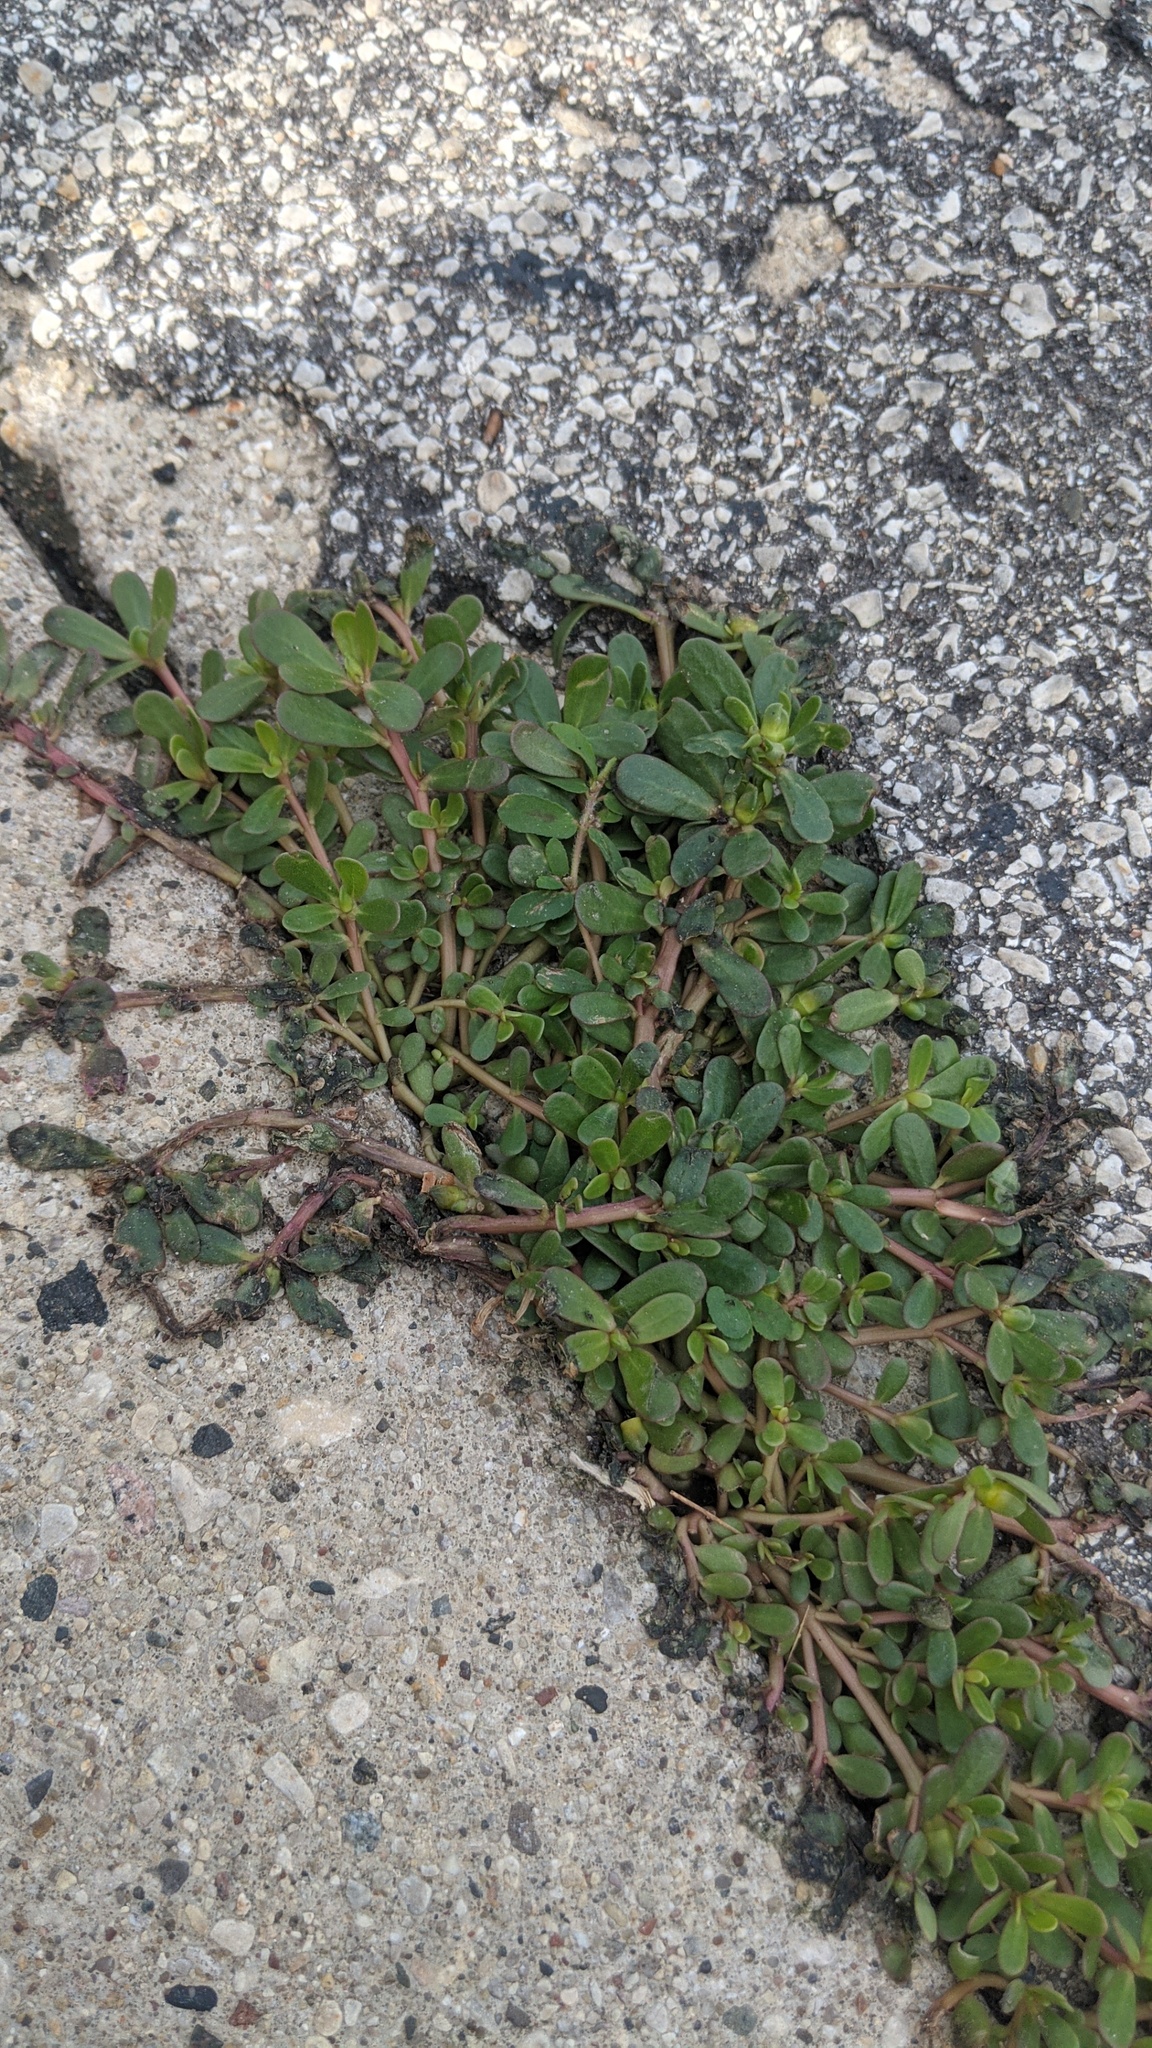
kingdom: Plantae
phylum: Tracheophyta
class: Magnoliopsida
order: Caryophyllales
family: Portulacaceae
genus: Portulaca
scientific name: Portulaca oleracea
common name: Common purslane
